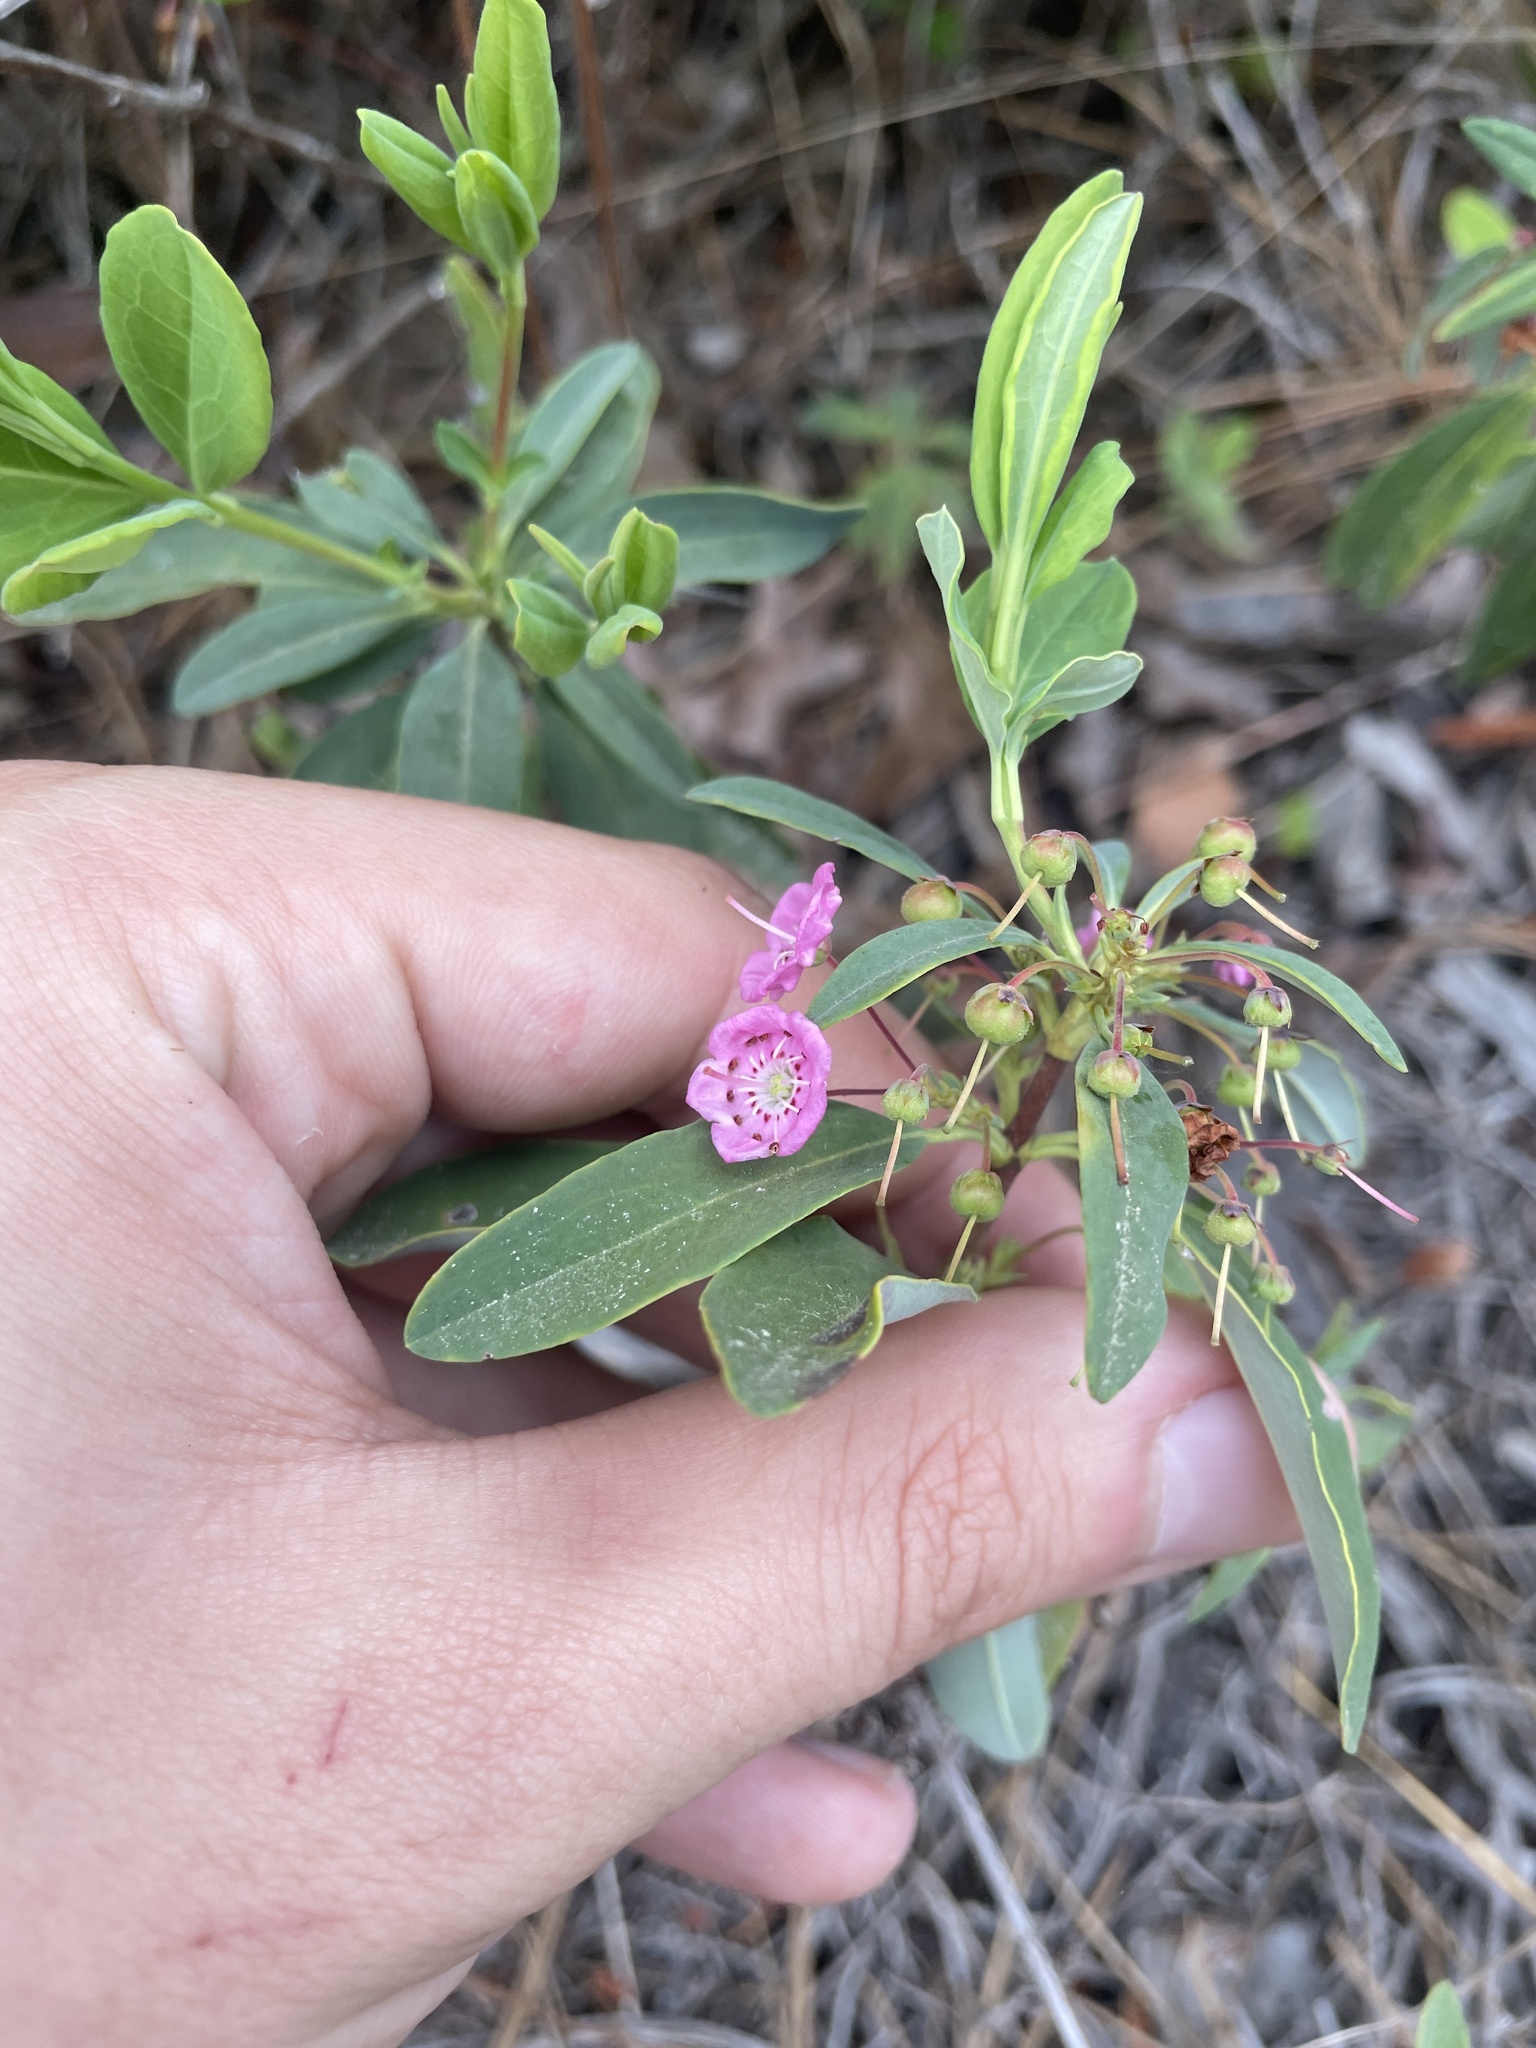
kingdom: Plantae
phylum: Tracheophyta
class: Magnoliopsida
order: Ericales
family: Ericaceae
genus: Kalmia
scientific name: Kalmia angustifolia
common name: Sheep-laurel
